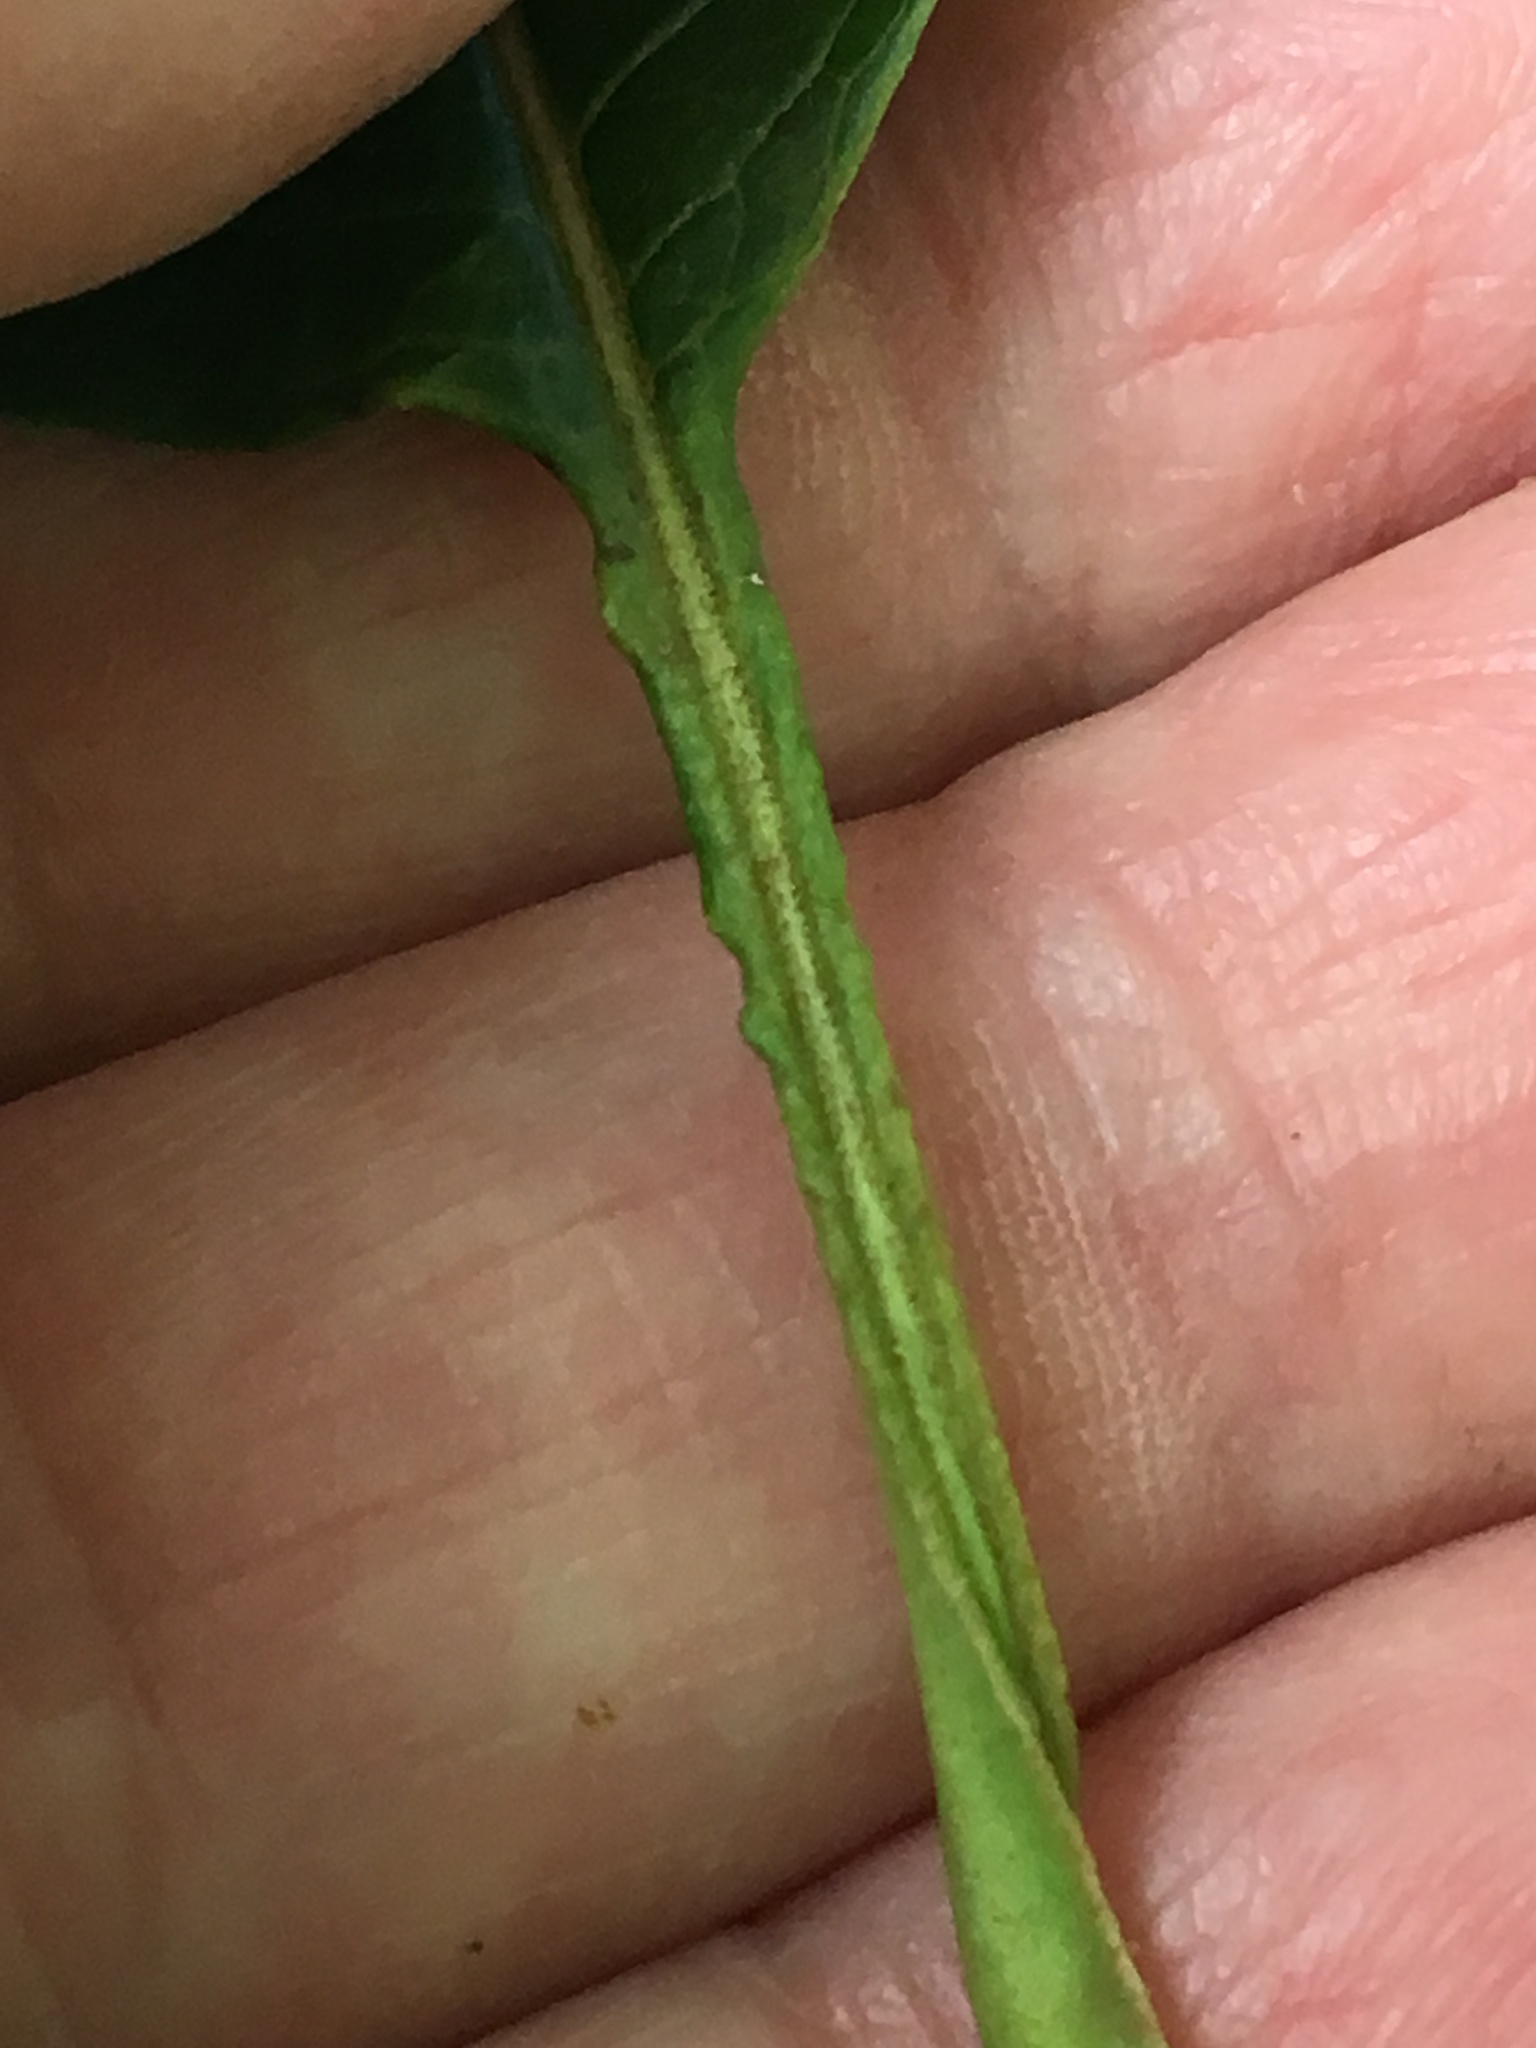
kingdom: Plantae
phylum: Tracheophyta
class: Magnoliopsida
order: Dipsacales
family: Viburnaceae
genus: Viburnum
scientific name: Viburnum lentago
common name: Black haw
